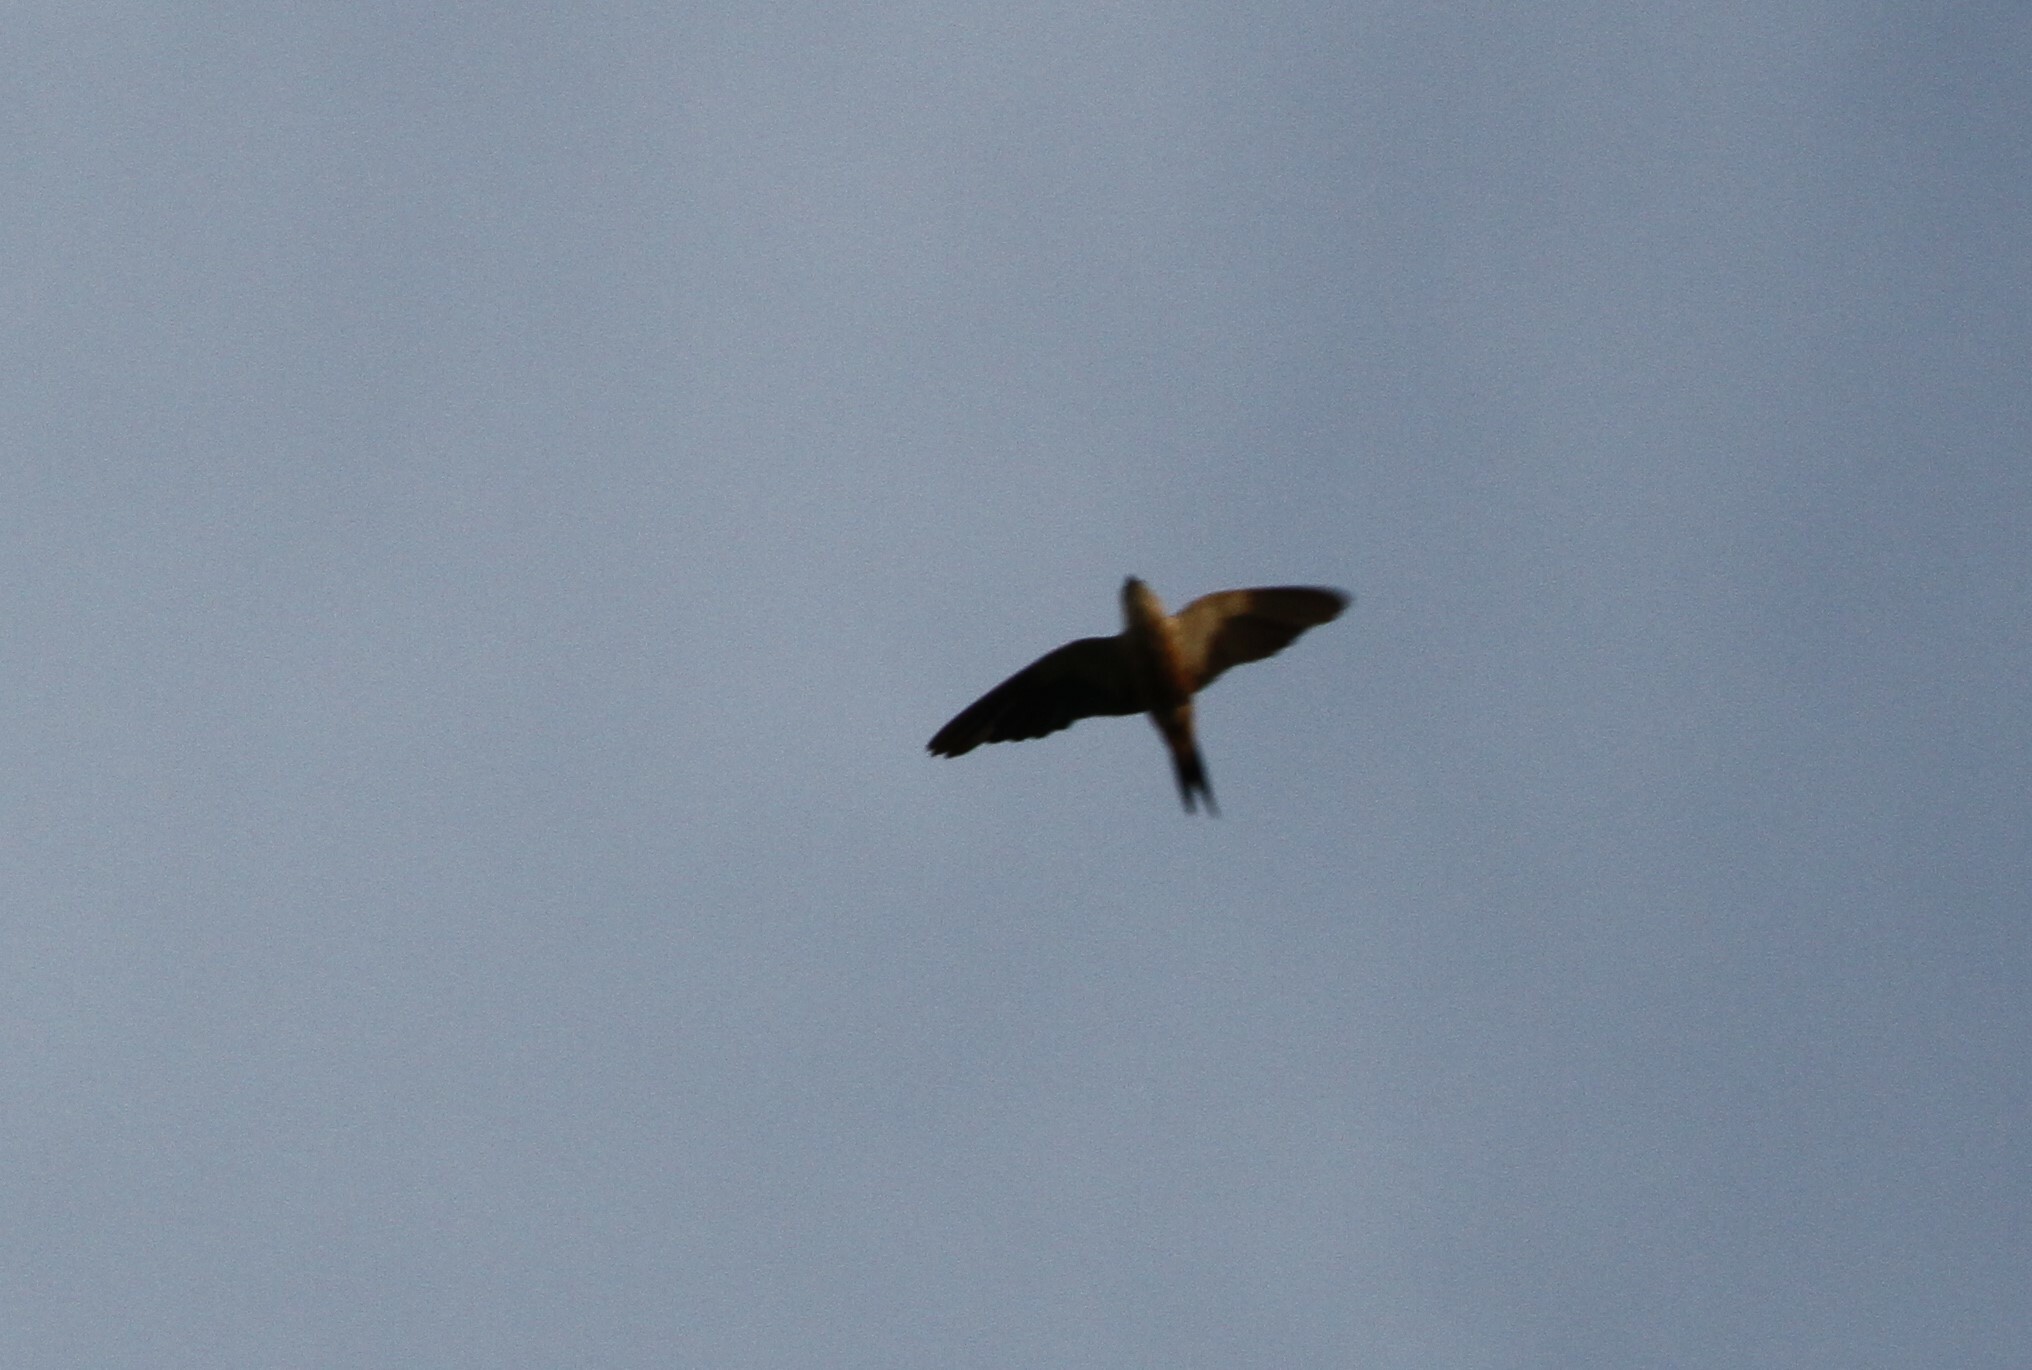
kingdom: Animalia
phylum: Chordata
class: Aves
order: Passeriformes
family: Hirundinidae
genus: Cecropis
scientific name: Cecropis senegalensis
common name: Mosque swallow
